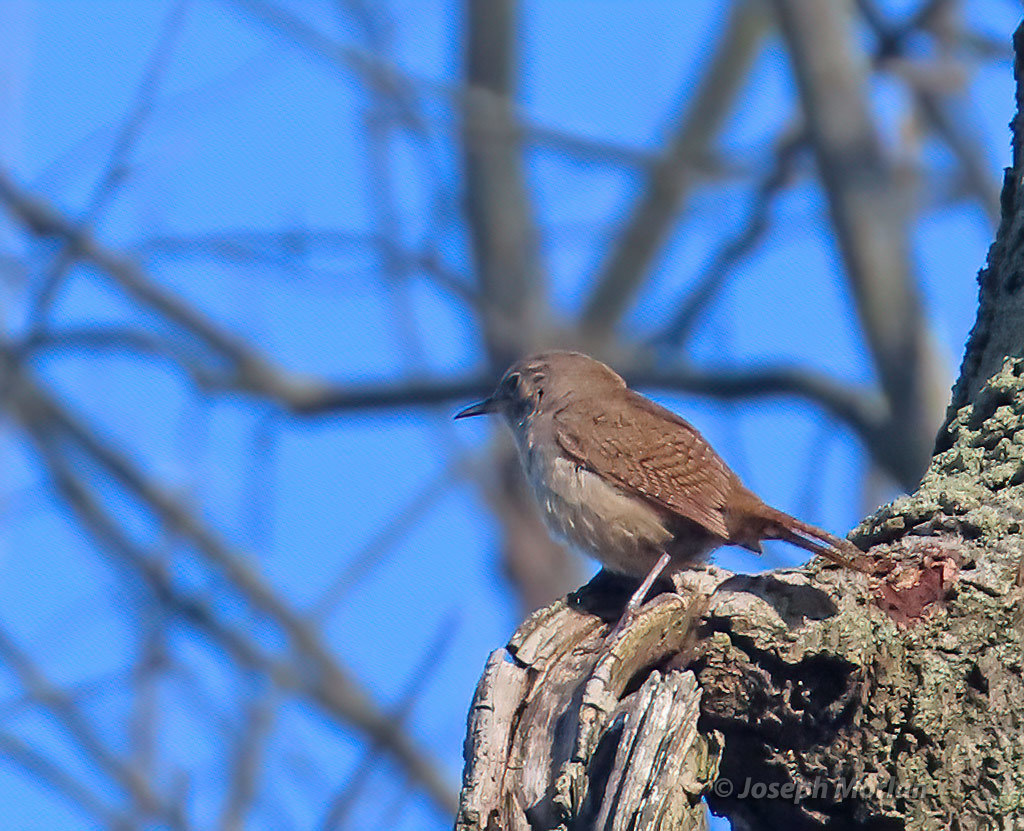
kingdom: Animalia
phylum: Chordata
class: Aves
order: Passeriformes
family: Troglodytidae
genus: Troglodytes
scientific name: Troglodytes aedon
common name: House wren
